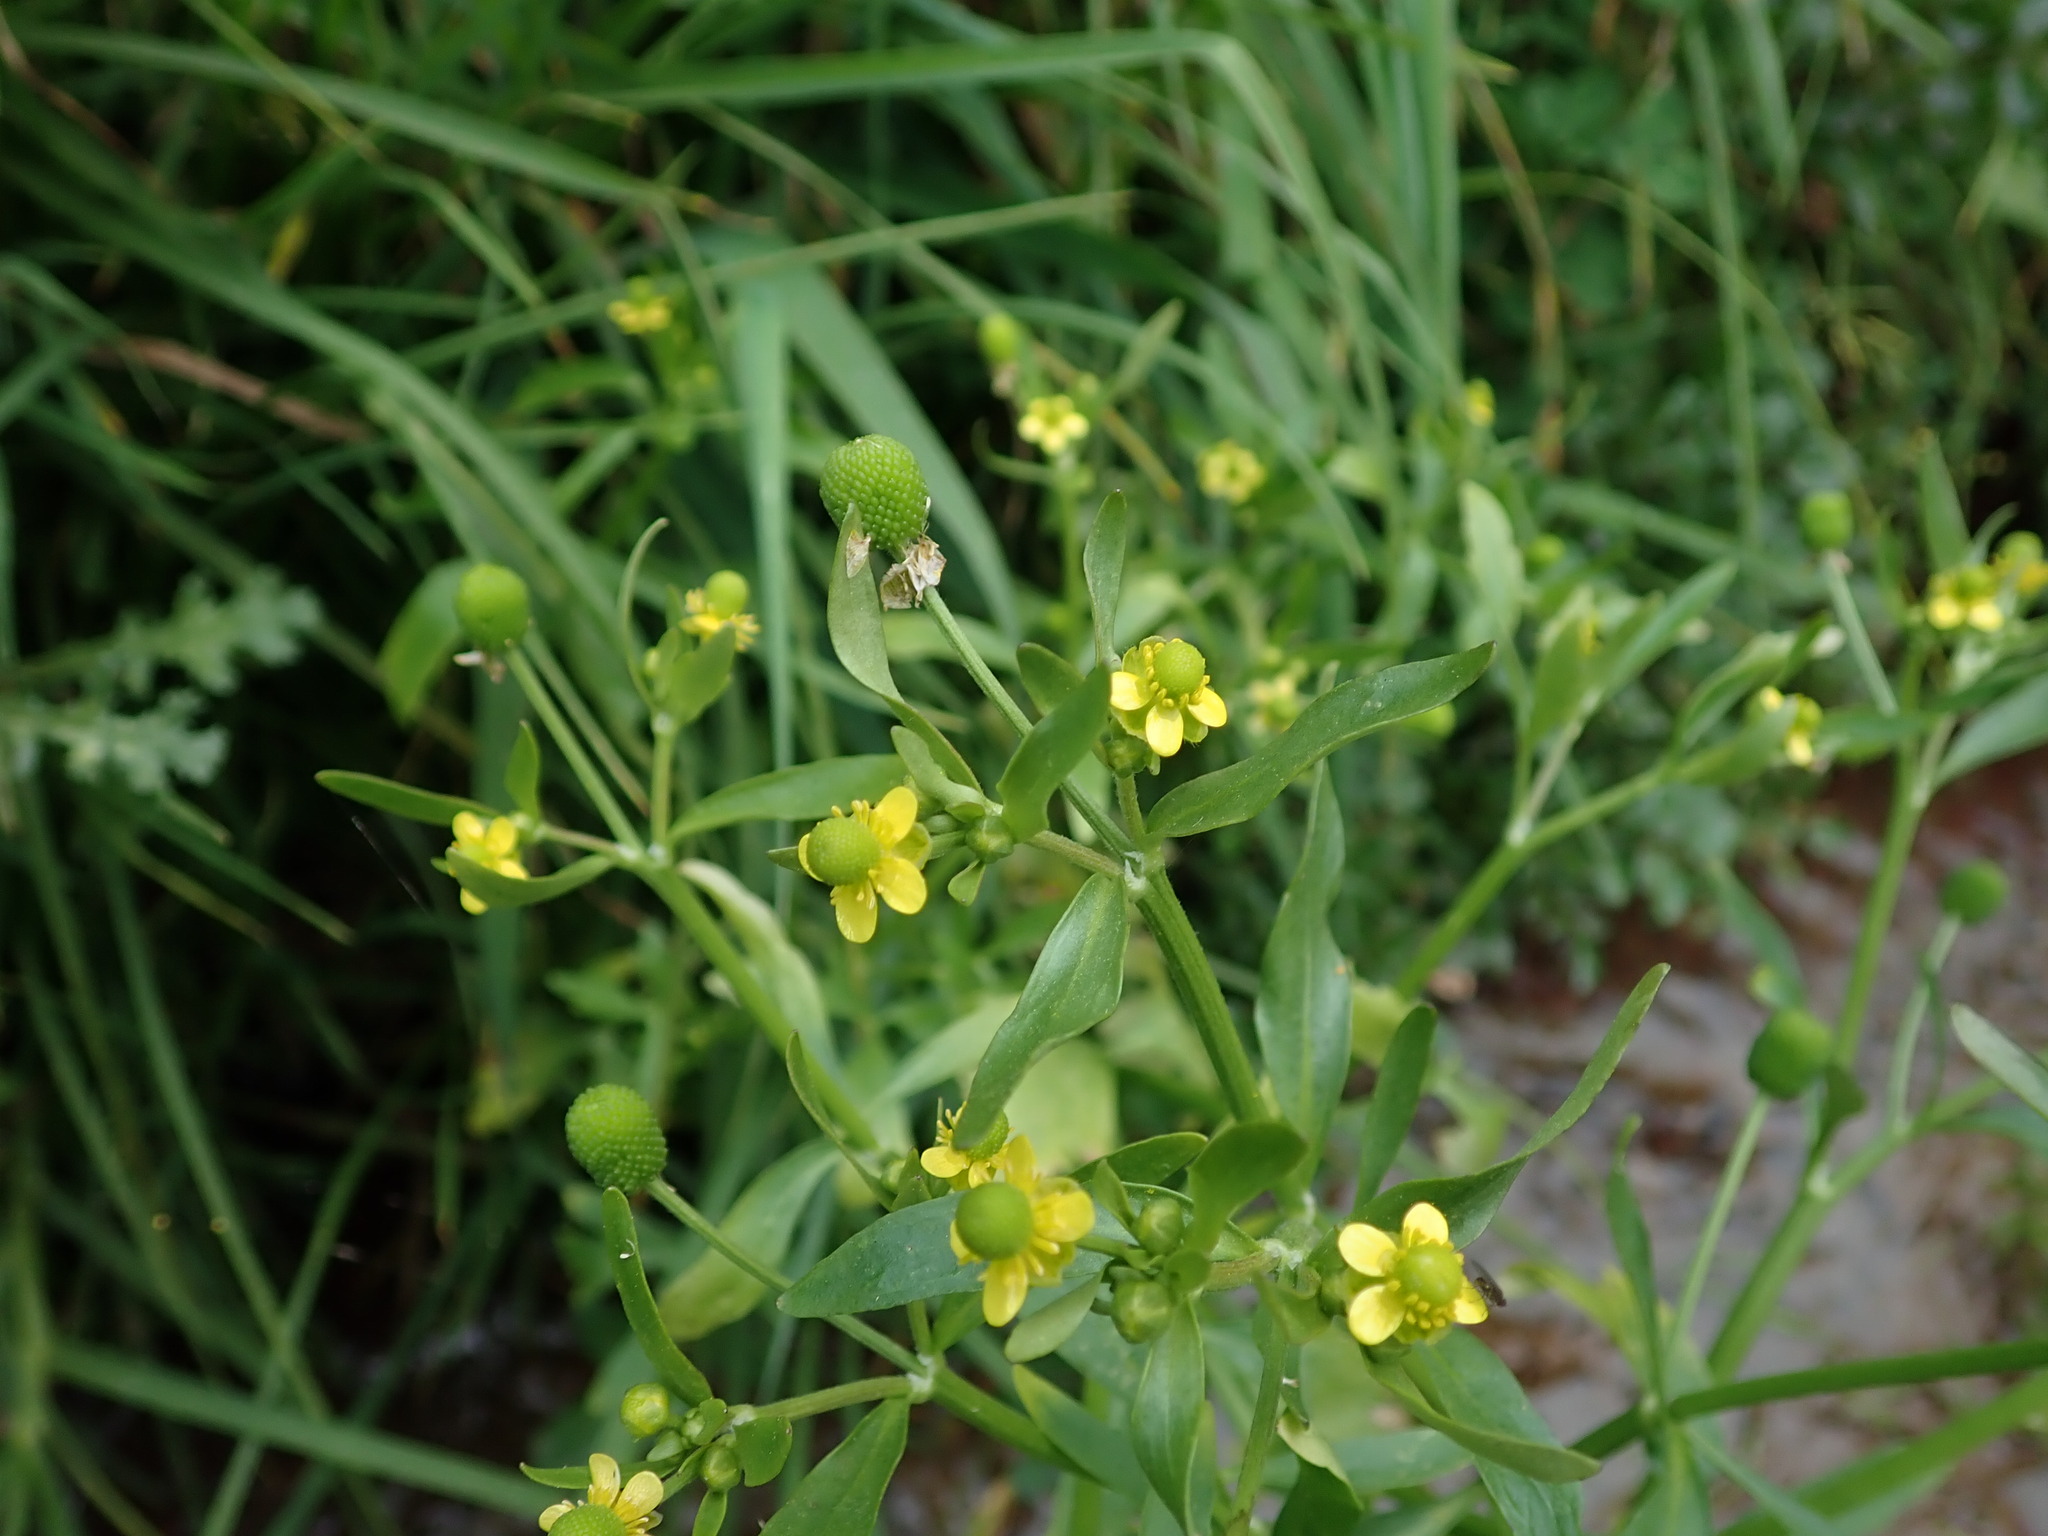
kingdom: Plantae
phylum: Tracheophyta
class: Magnoliopsida
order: Ranunculales
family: Ranunculaceae
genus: Ranunculus
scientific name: Ranunculus sceleratus
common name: Celery-leaved buttercup
